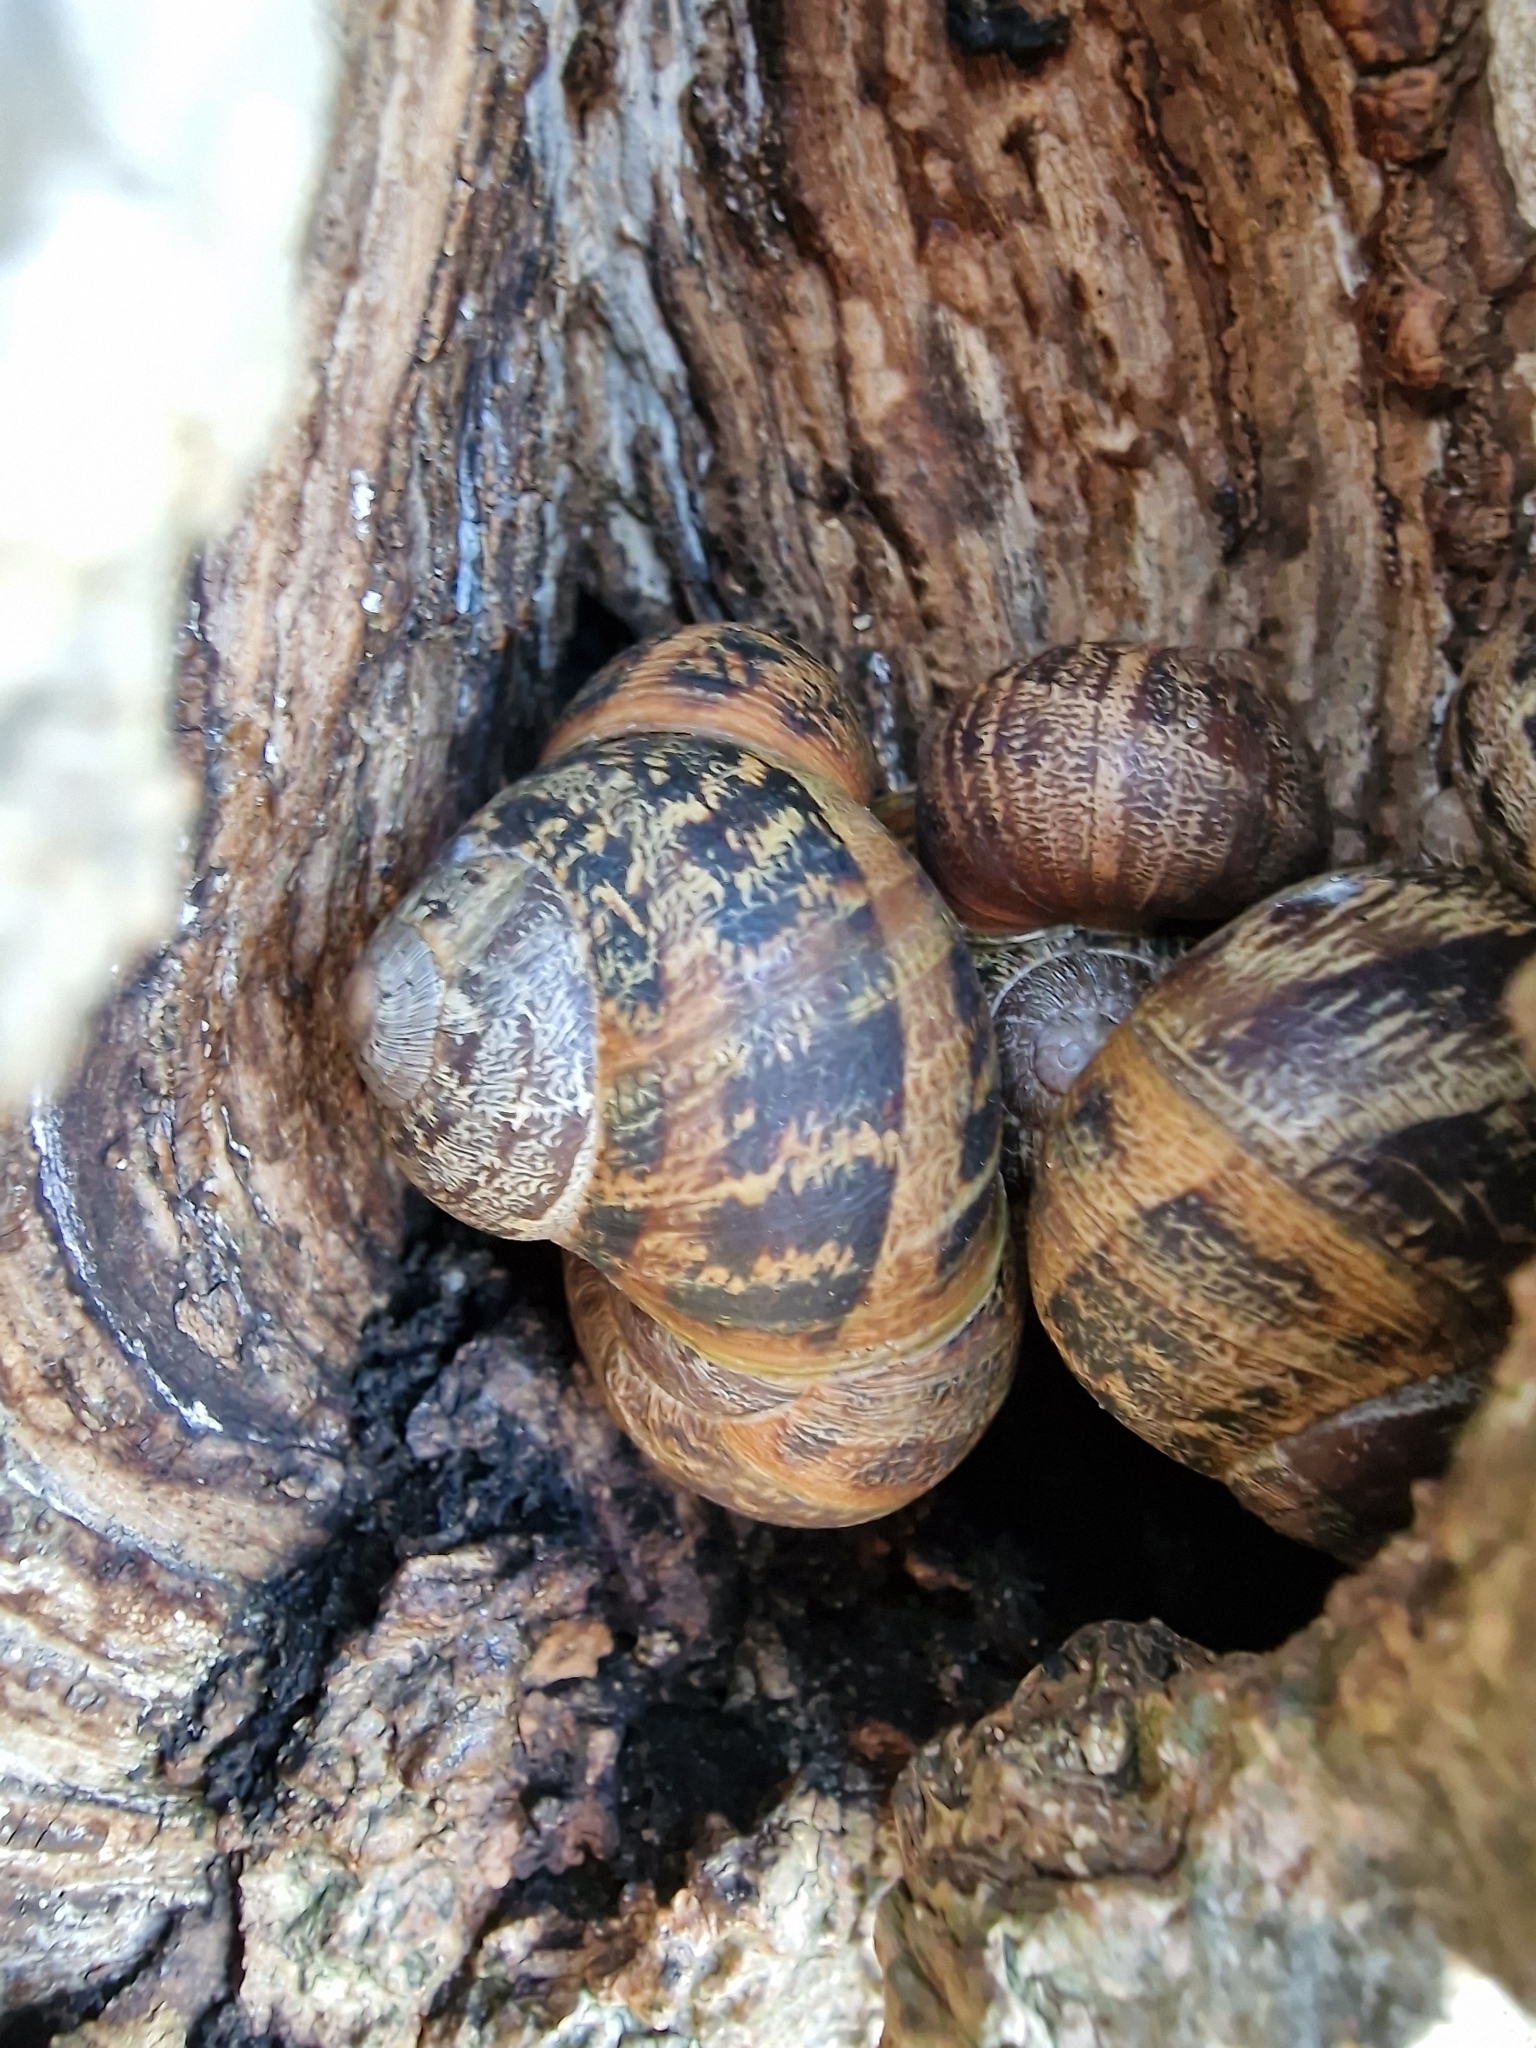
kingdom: Animalia
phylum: Mollusca
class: Gastropoda
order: Stylommatophora
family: Helicidae
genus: Cornu
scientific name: Cornu aspersum
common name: Brown garden snail
